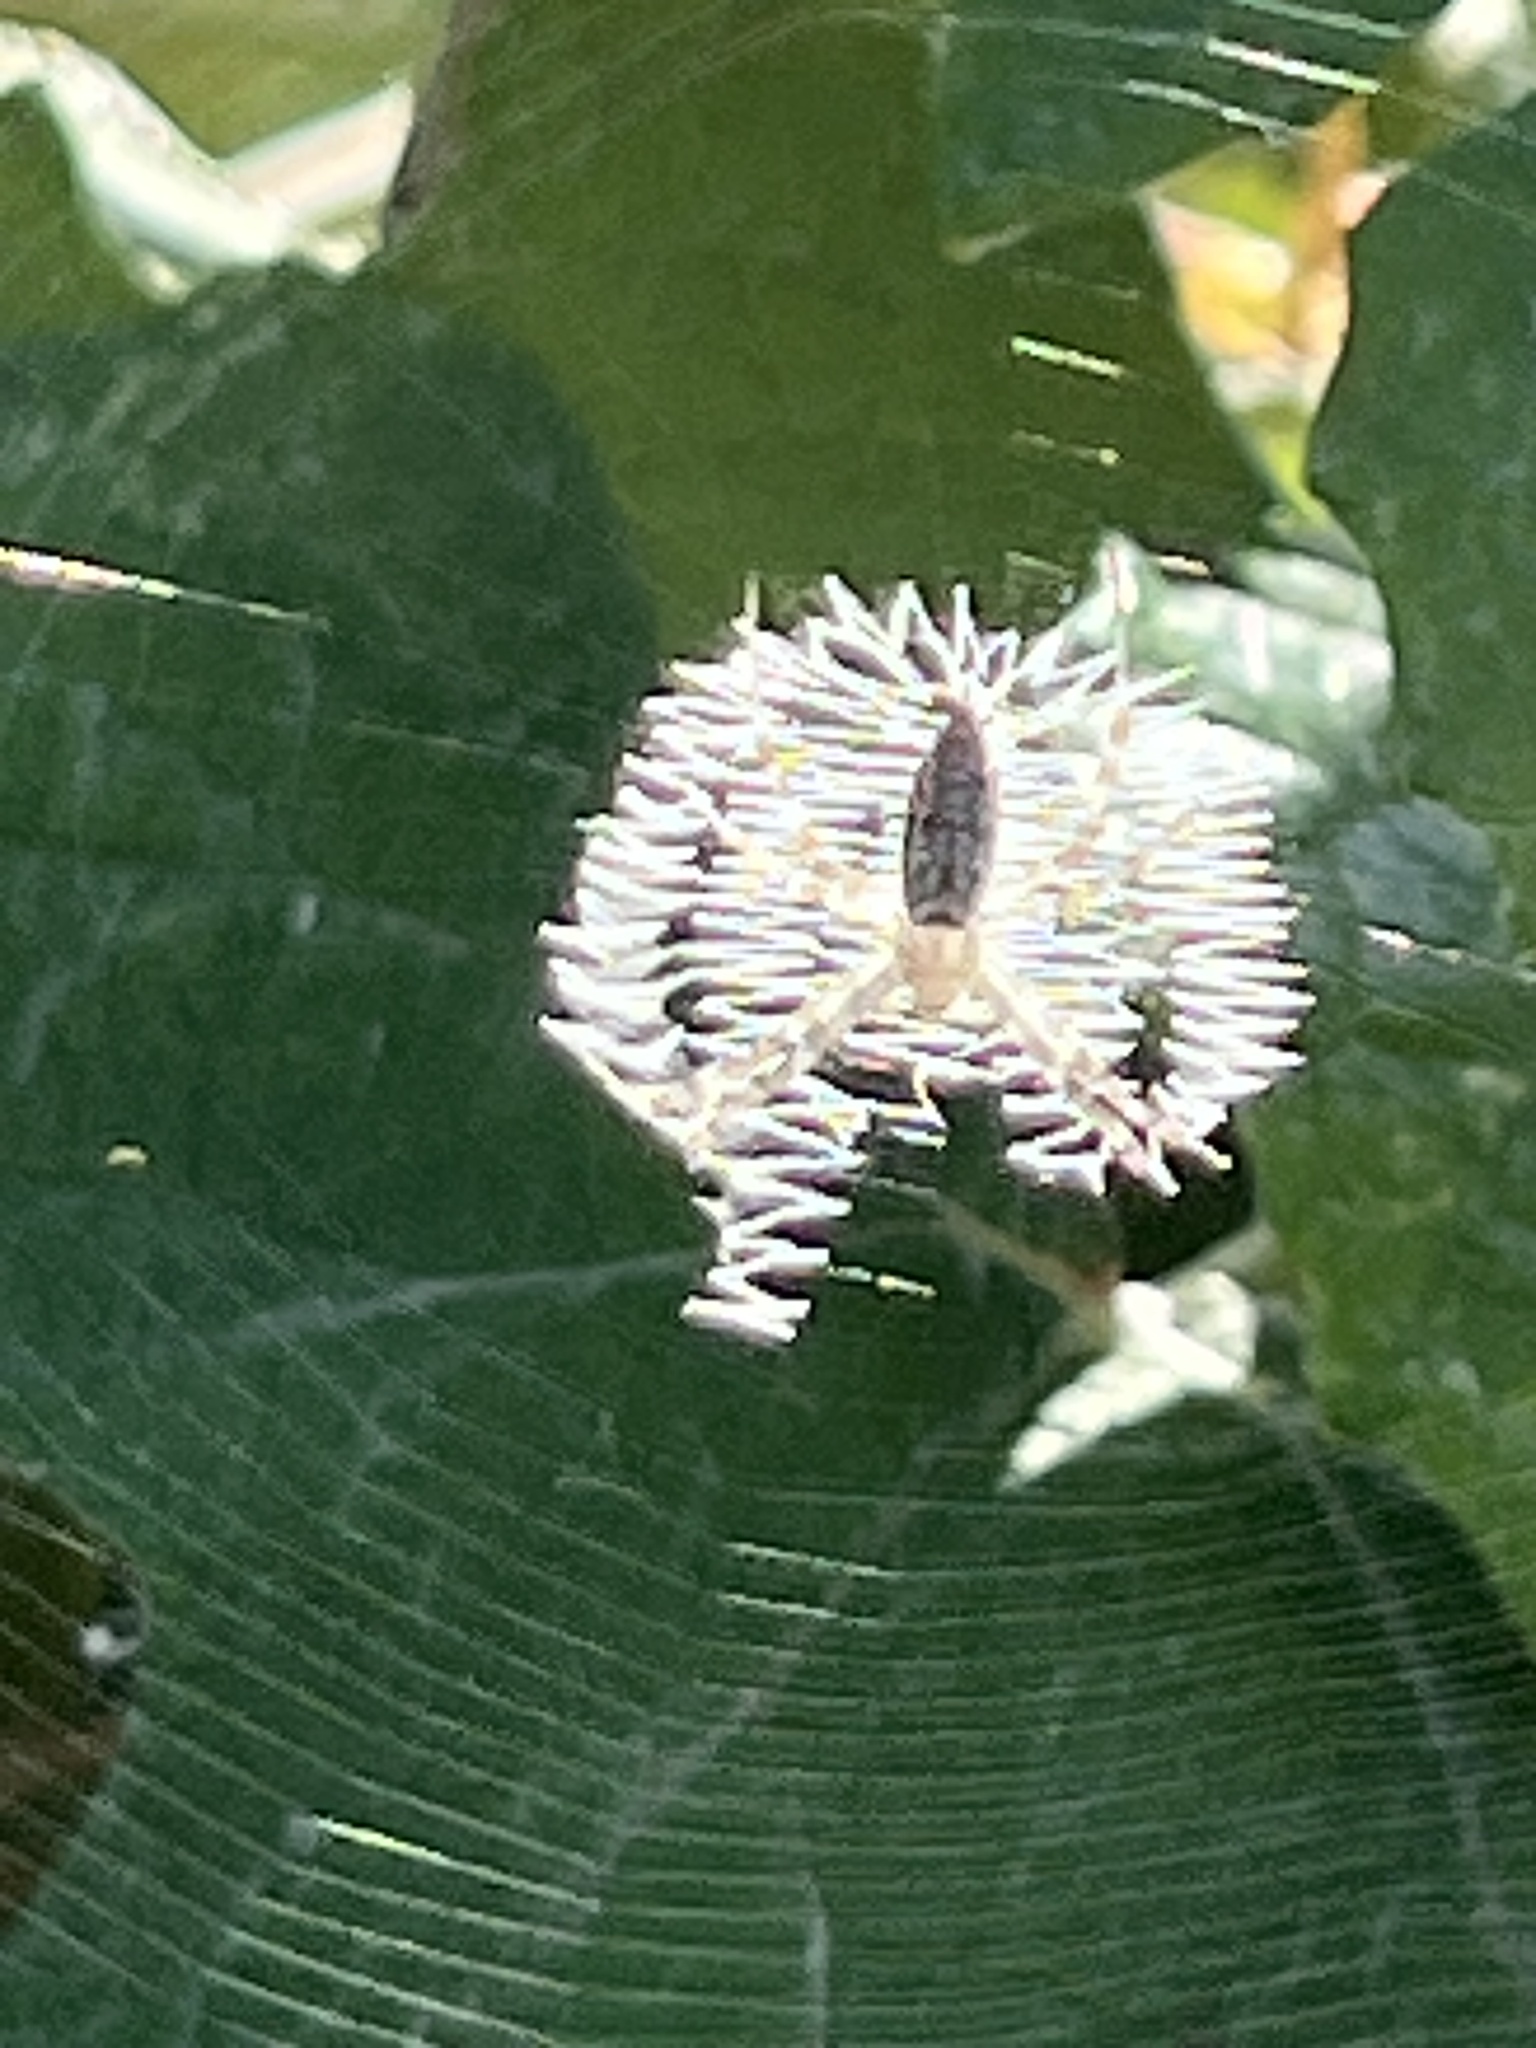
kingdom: Animalia
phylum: Arthropoda
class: Arachnida
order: Araneae
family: Araneidae
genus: Argiope
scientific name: Argiope aurantia
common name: Orb weavers
